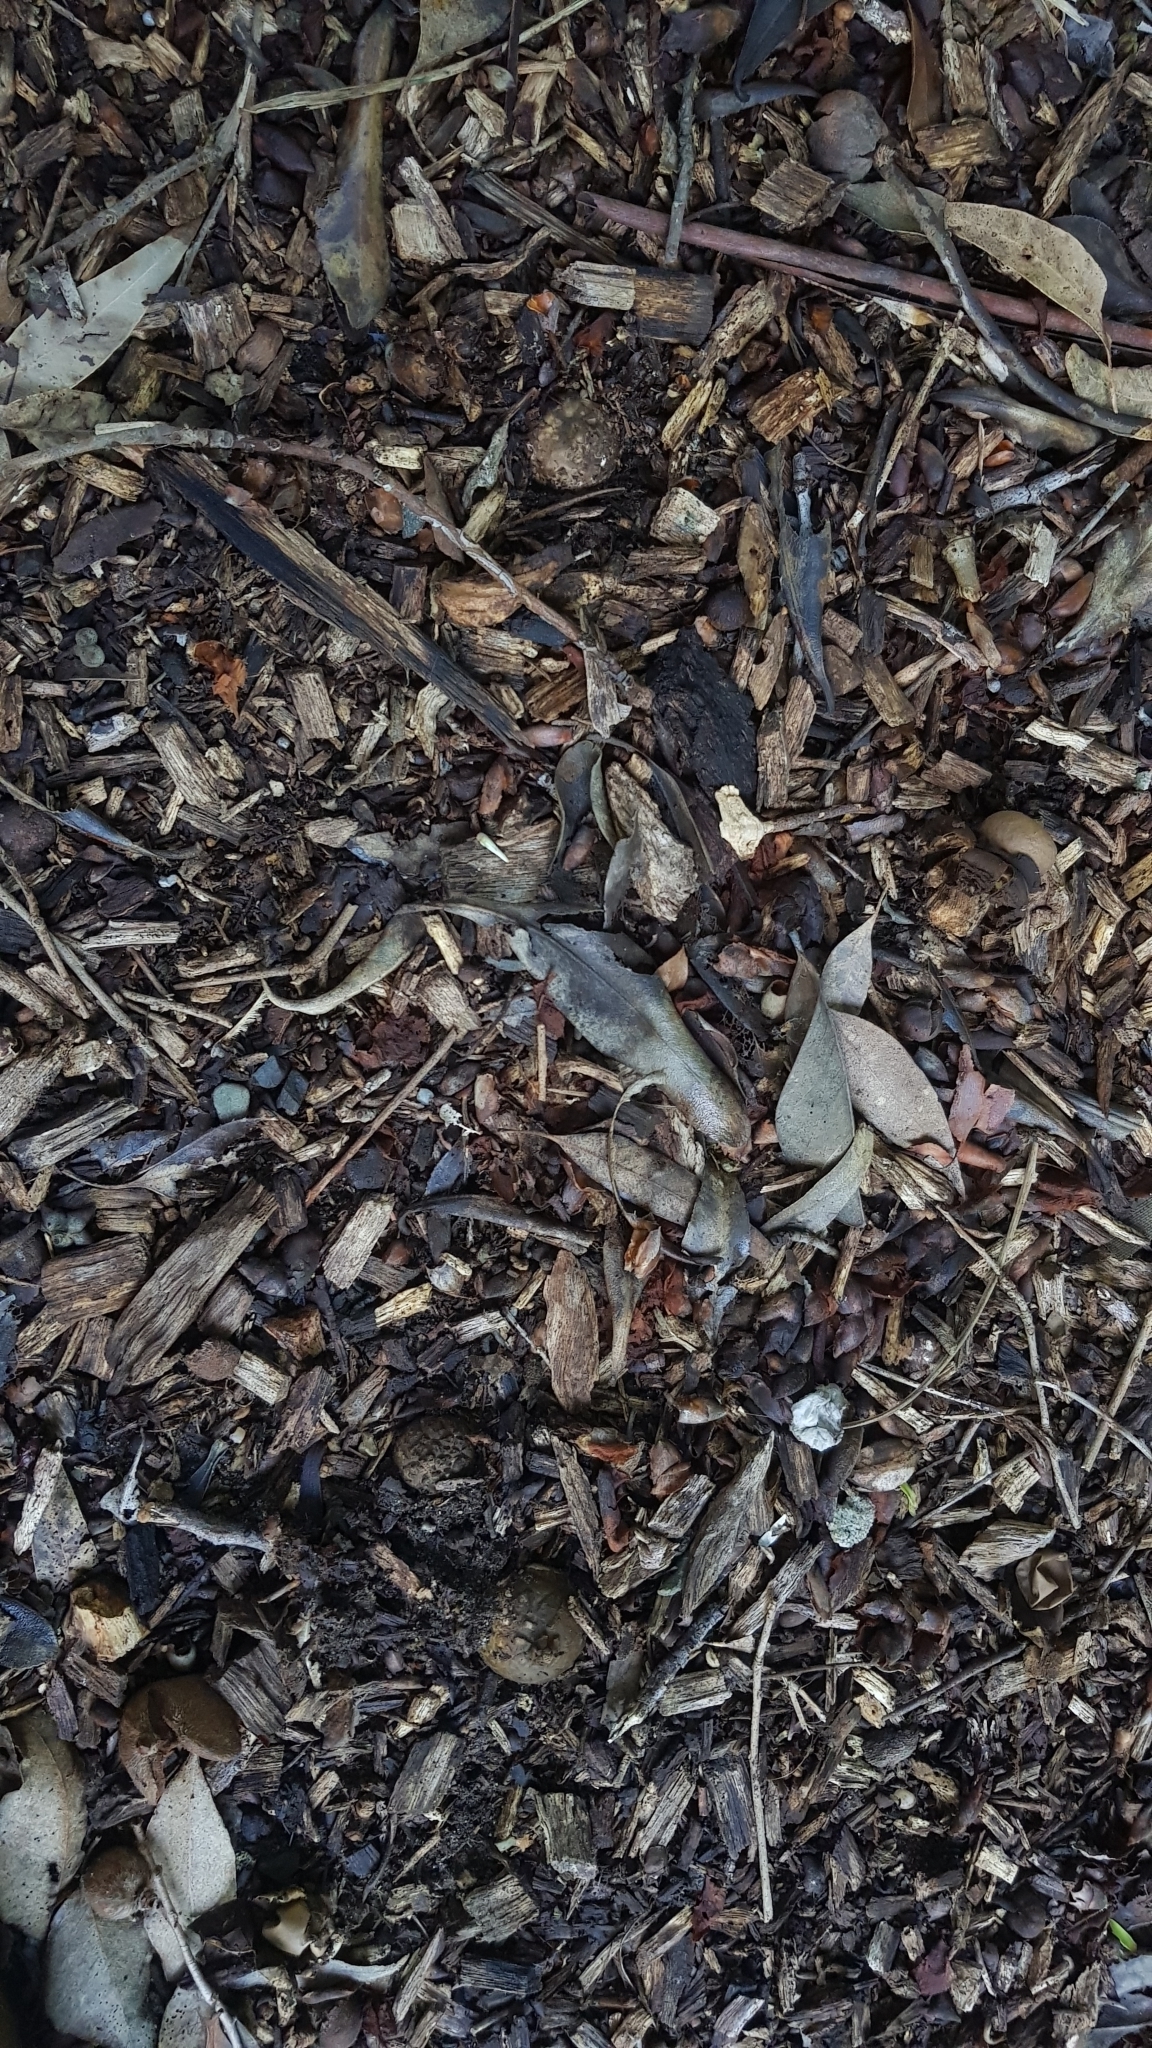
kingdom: Fungi
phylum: Basidiomycota
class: Agaricomycetes
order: Geastrales
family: Geastraceae
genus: Geastrum
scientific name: Geastrum triplex
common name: Collared earthstar
